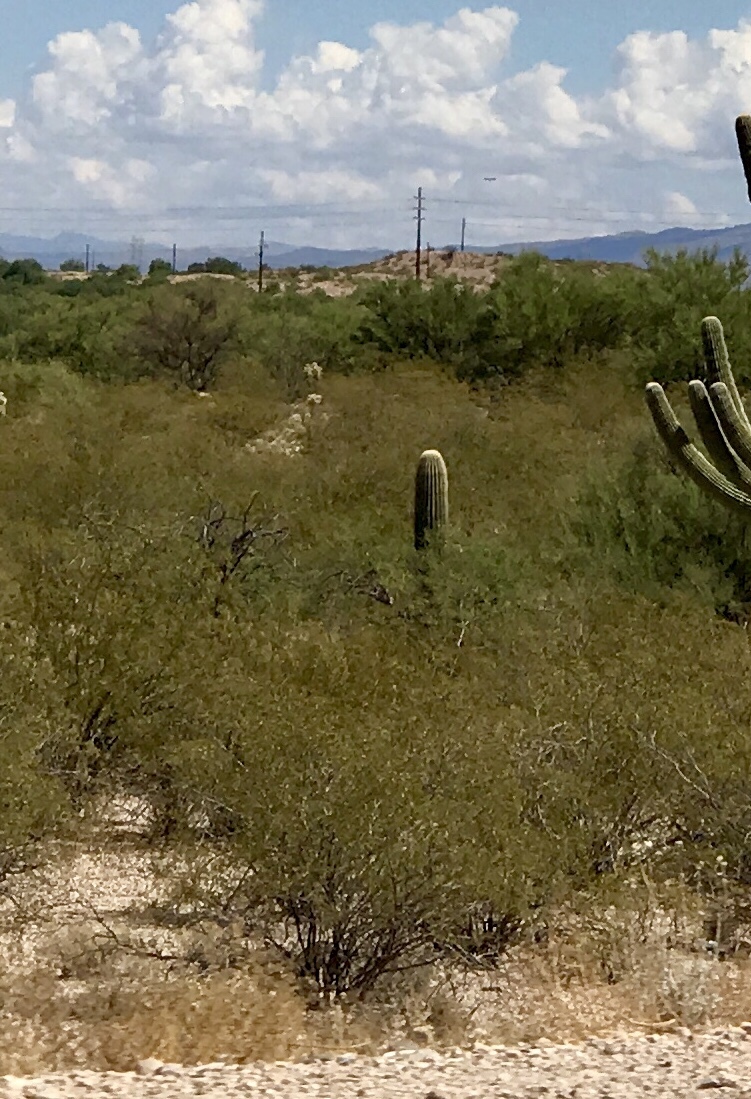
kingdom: Plantae
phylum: Tracheophyta
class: Magnoliopsida
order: Zygophyllales
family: Zygophyllaceae
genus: Larrea
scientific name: Larrea tridentata
